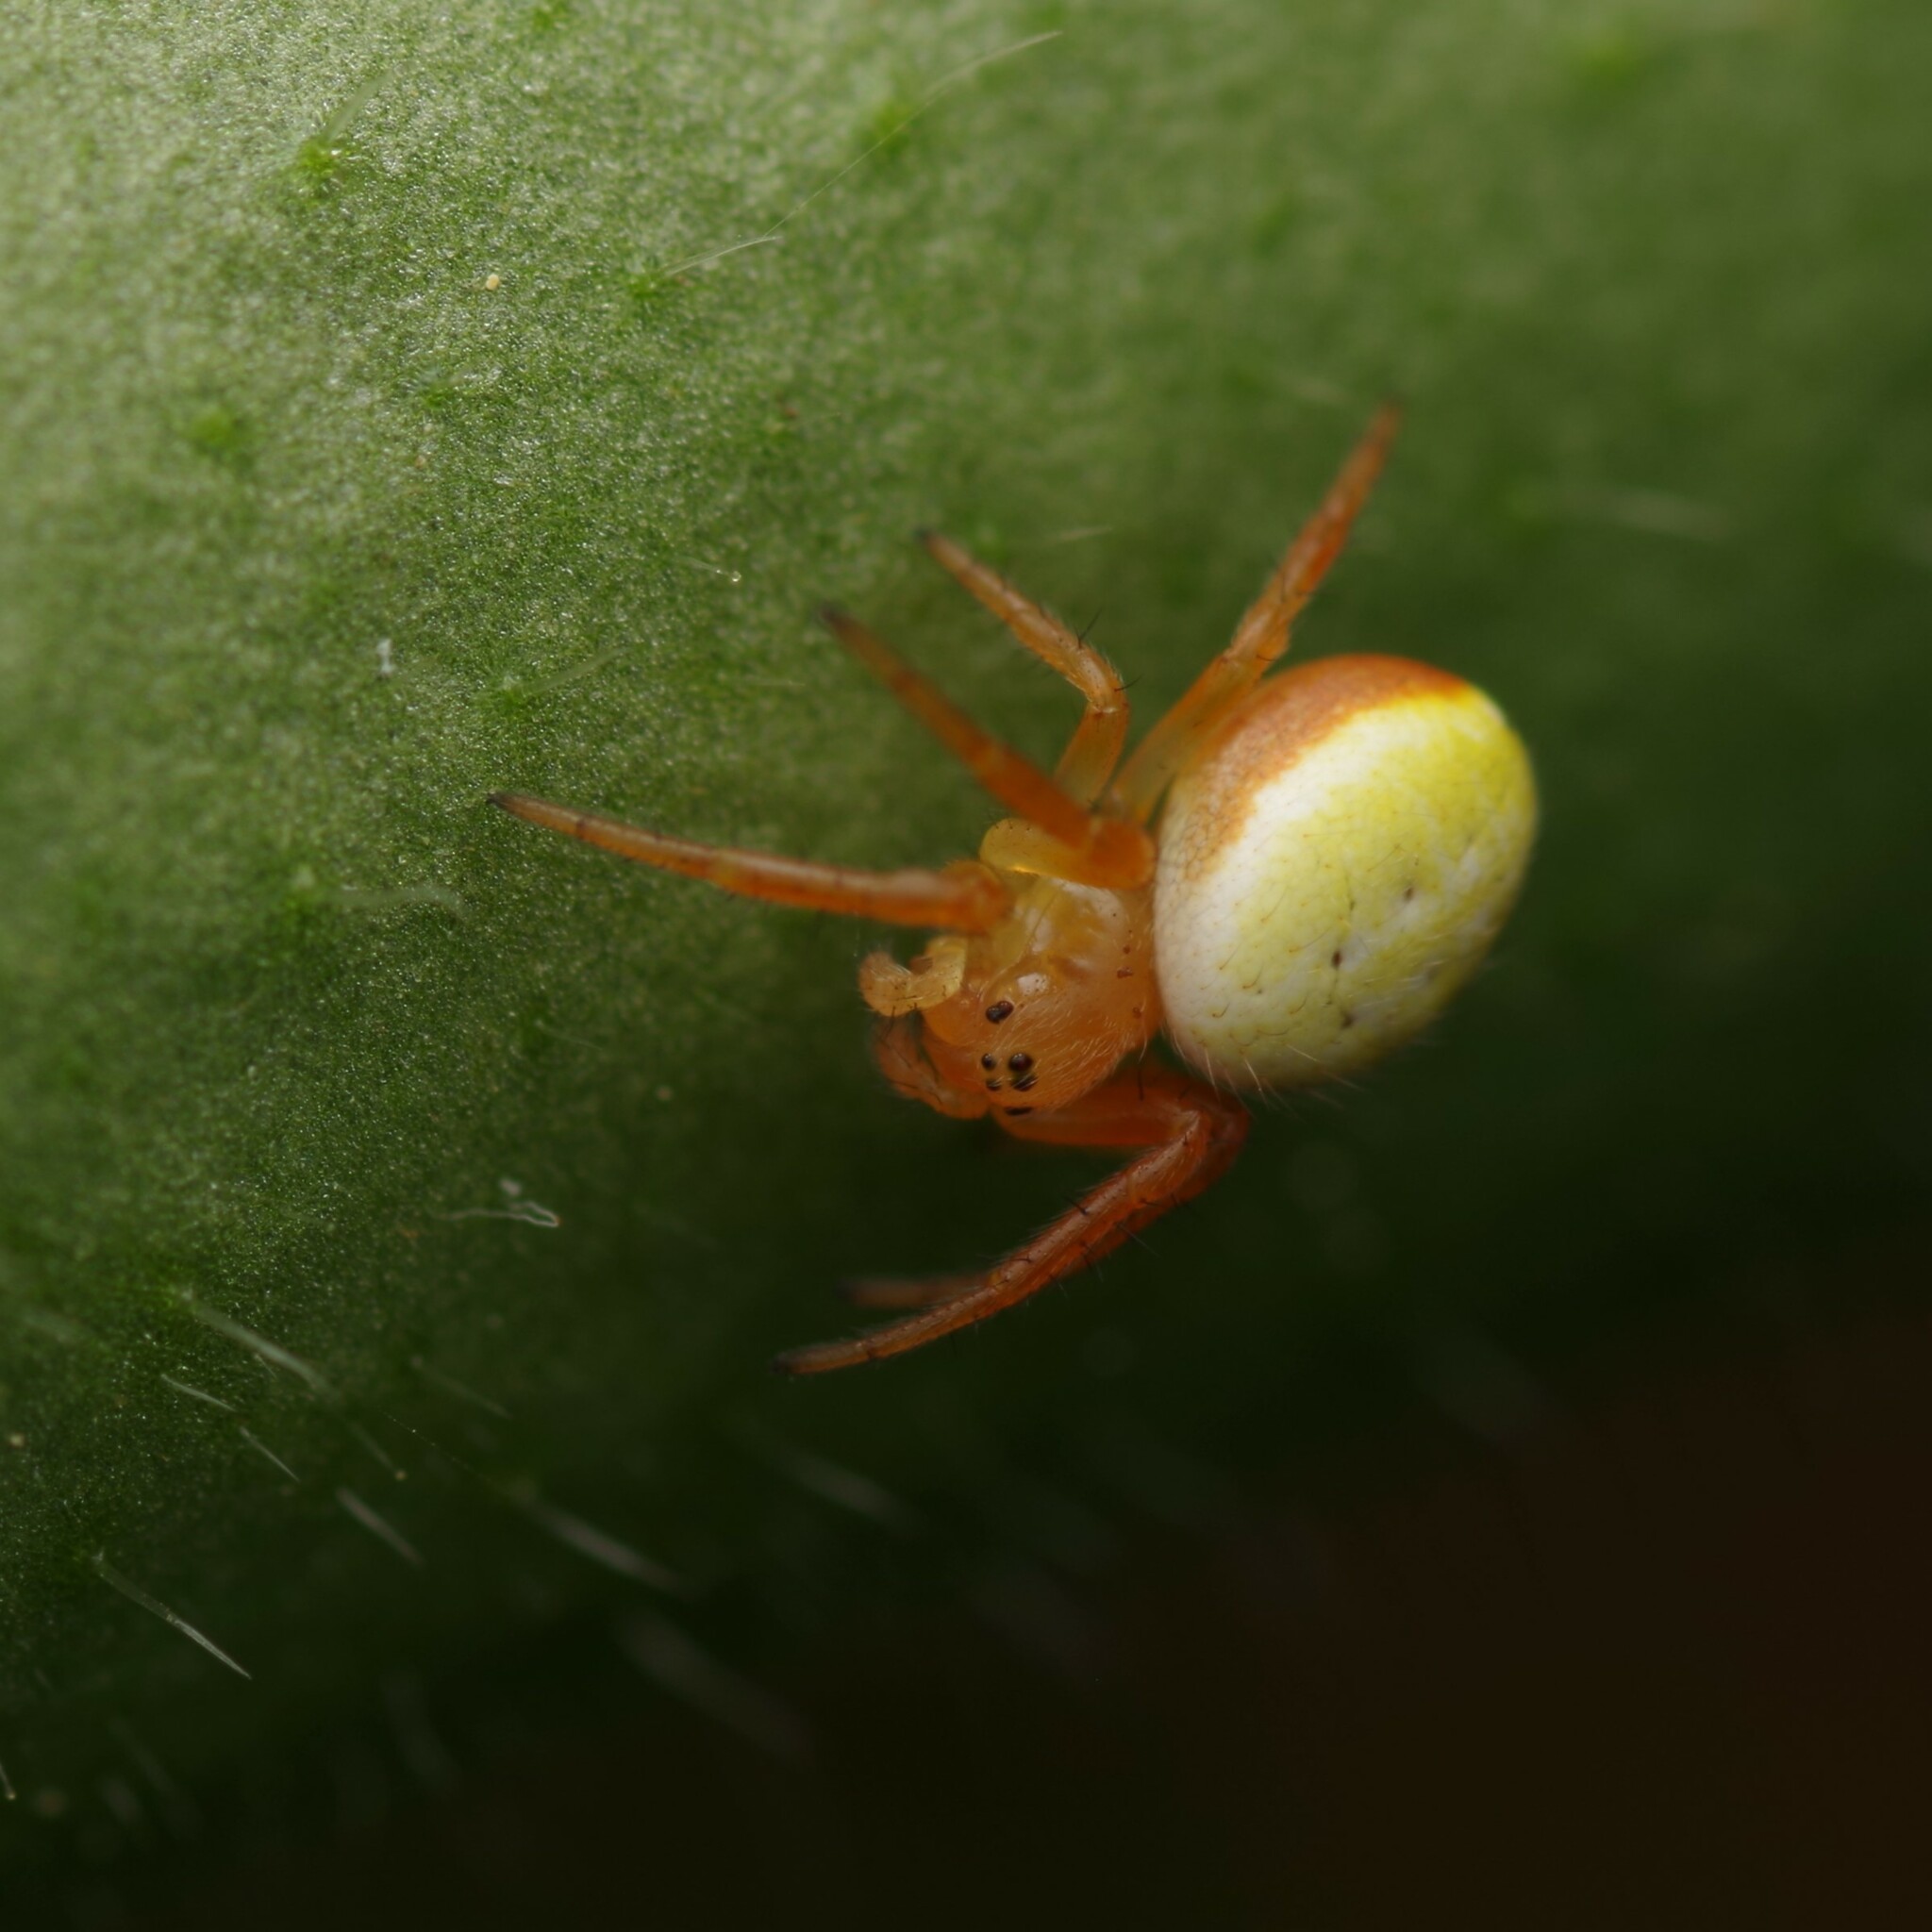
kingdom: Animalia
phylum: Arthropoda
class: Arachnida
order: Araneae
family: Araneidae
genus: Araniella
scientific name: Araniella
